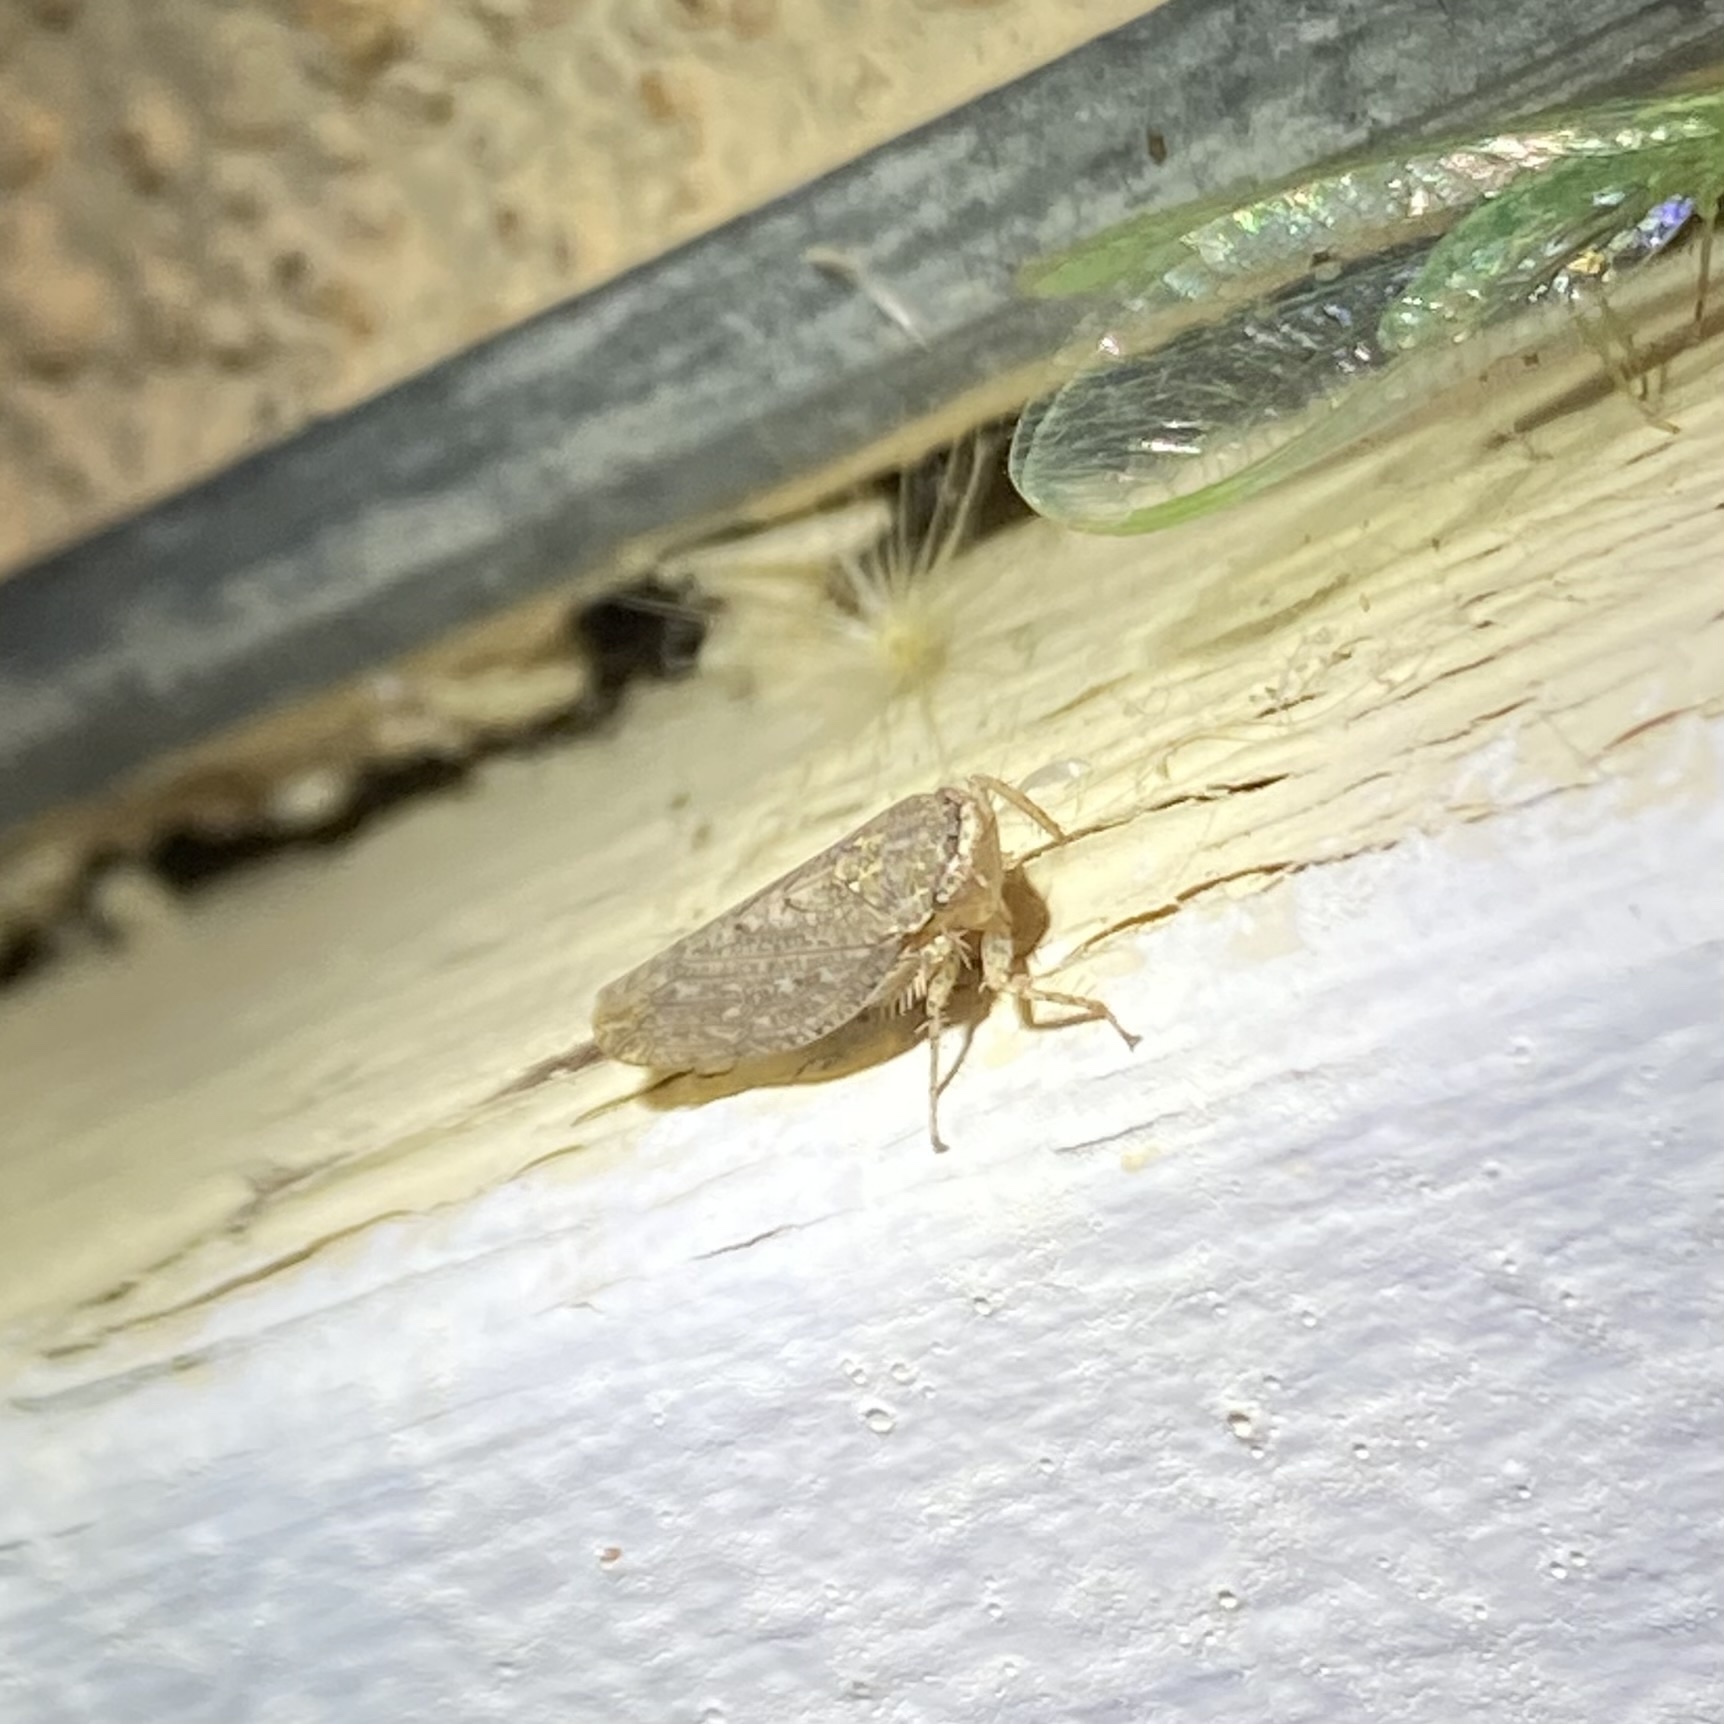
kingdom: Animalia
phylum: Arthropoda
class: Insecta
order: Hemiptera
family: Cicadellidae
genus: Texananus
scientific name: Texananus
